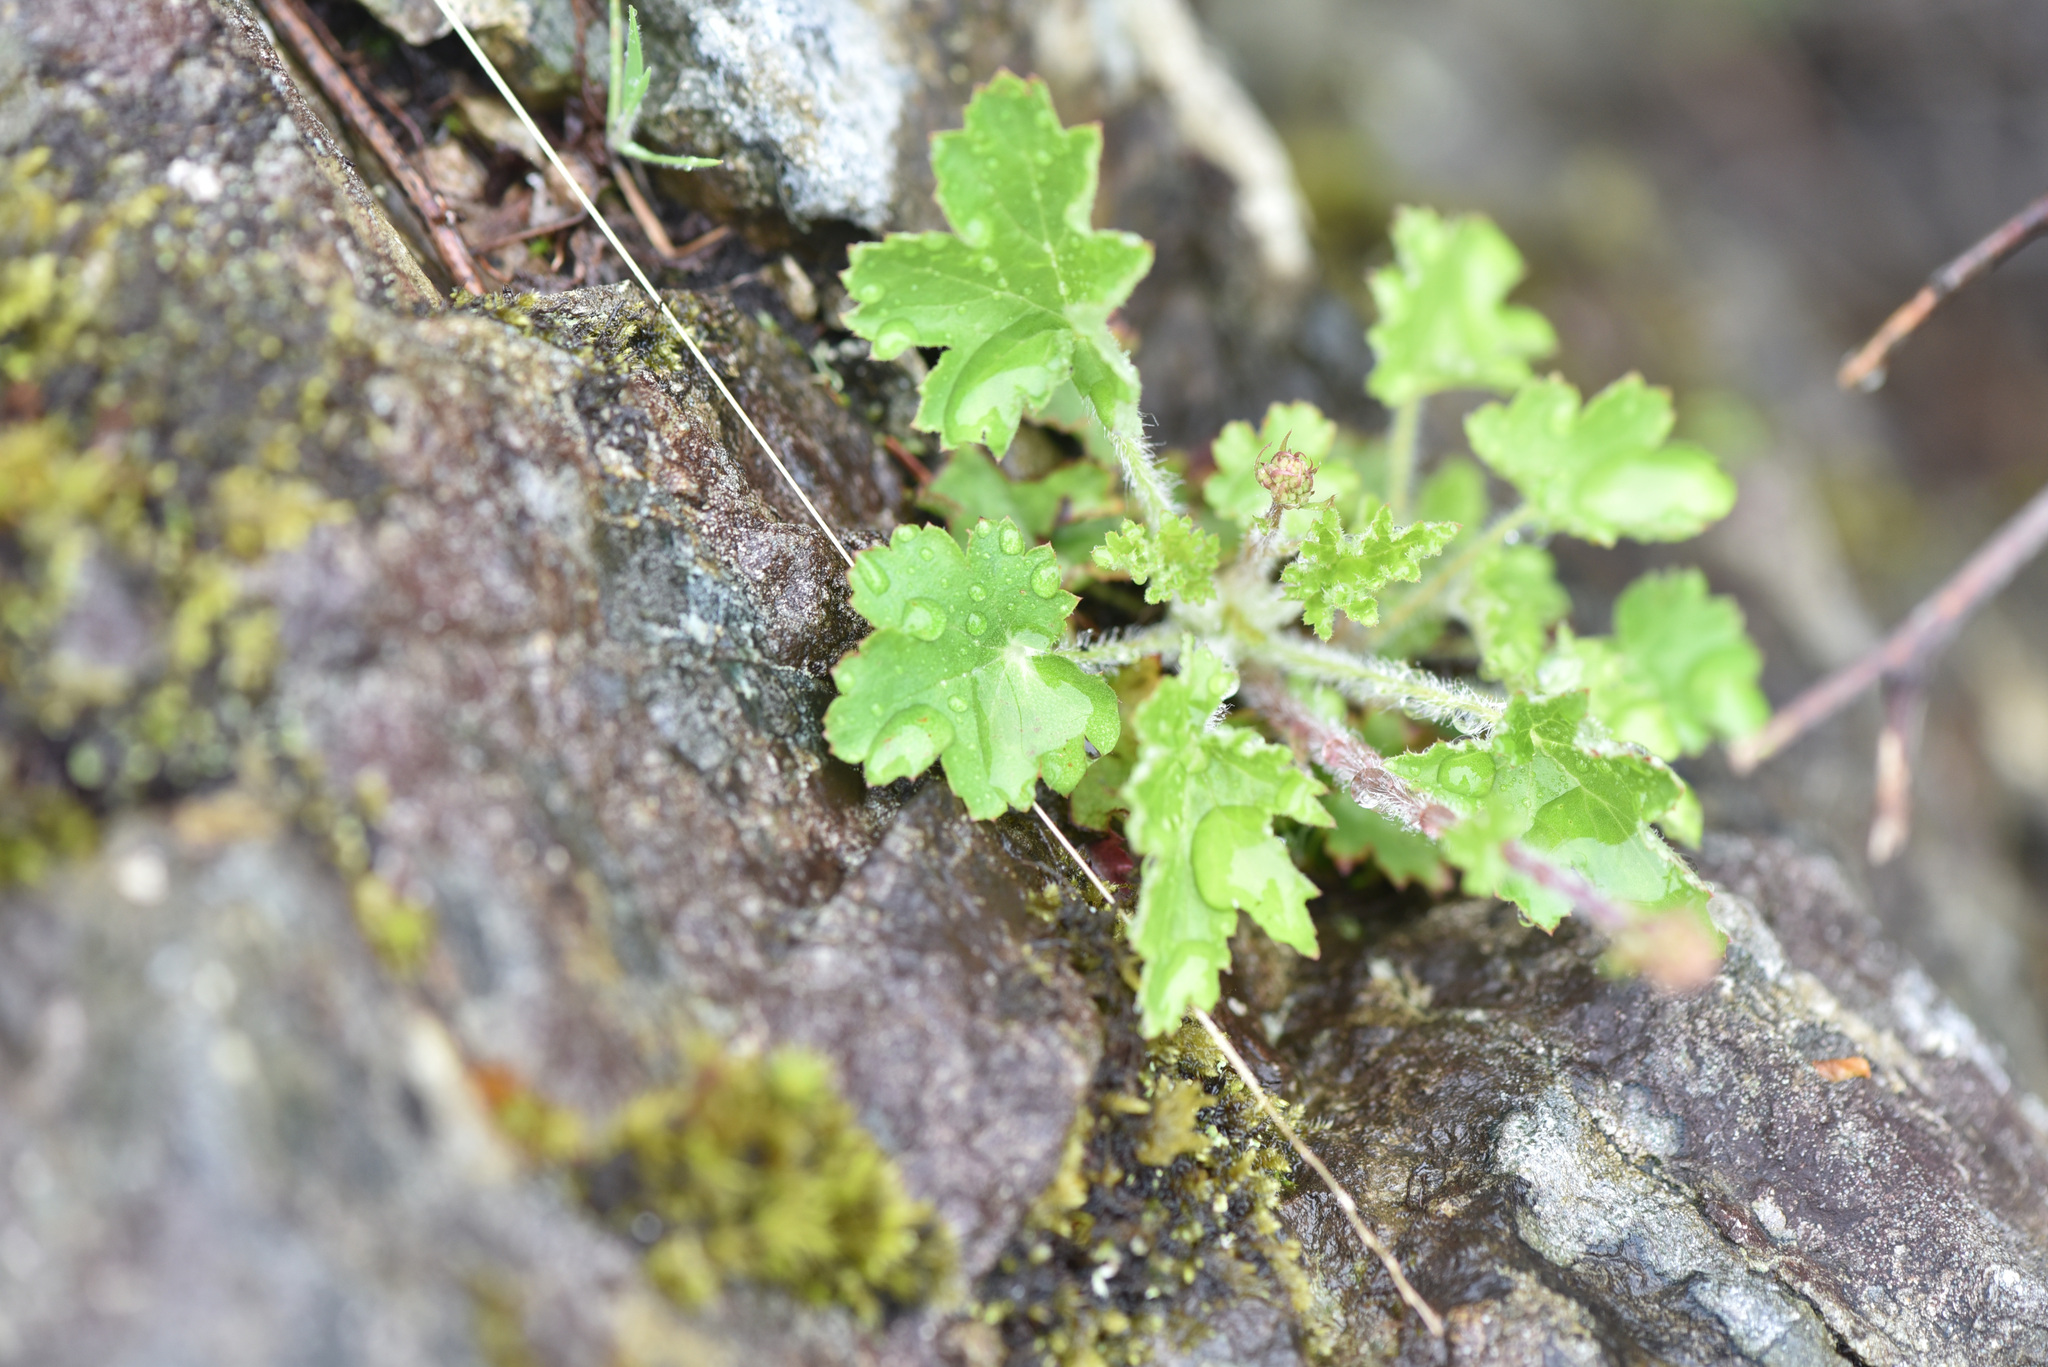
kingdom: Plantae
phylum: Tracheophyta
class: Magnoliopsida
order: Saxifragales
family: Saxifragaceae
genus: Heuchera
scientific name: Heuchera micrantha
